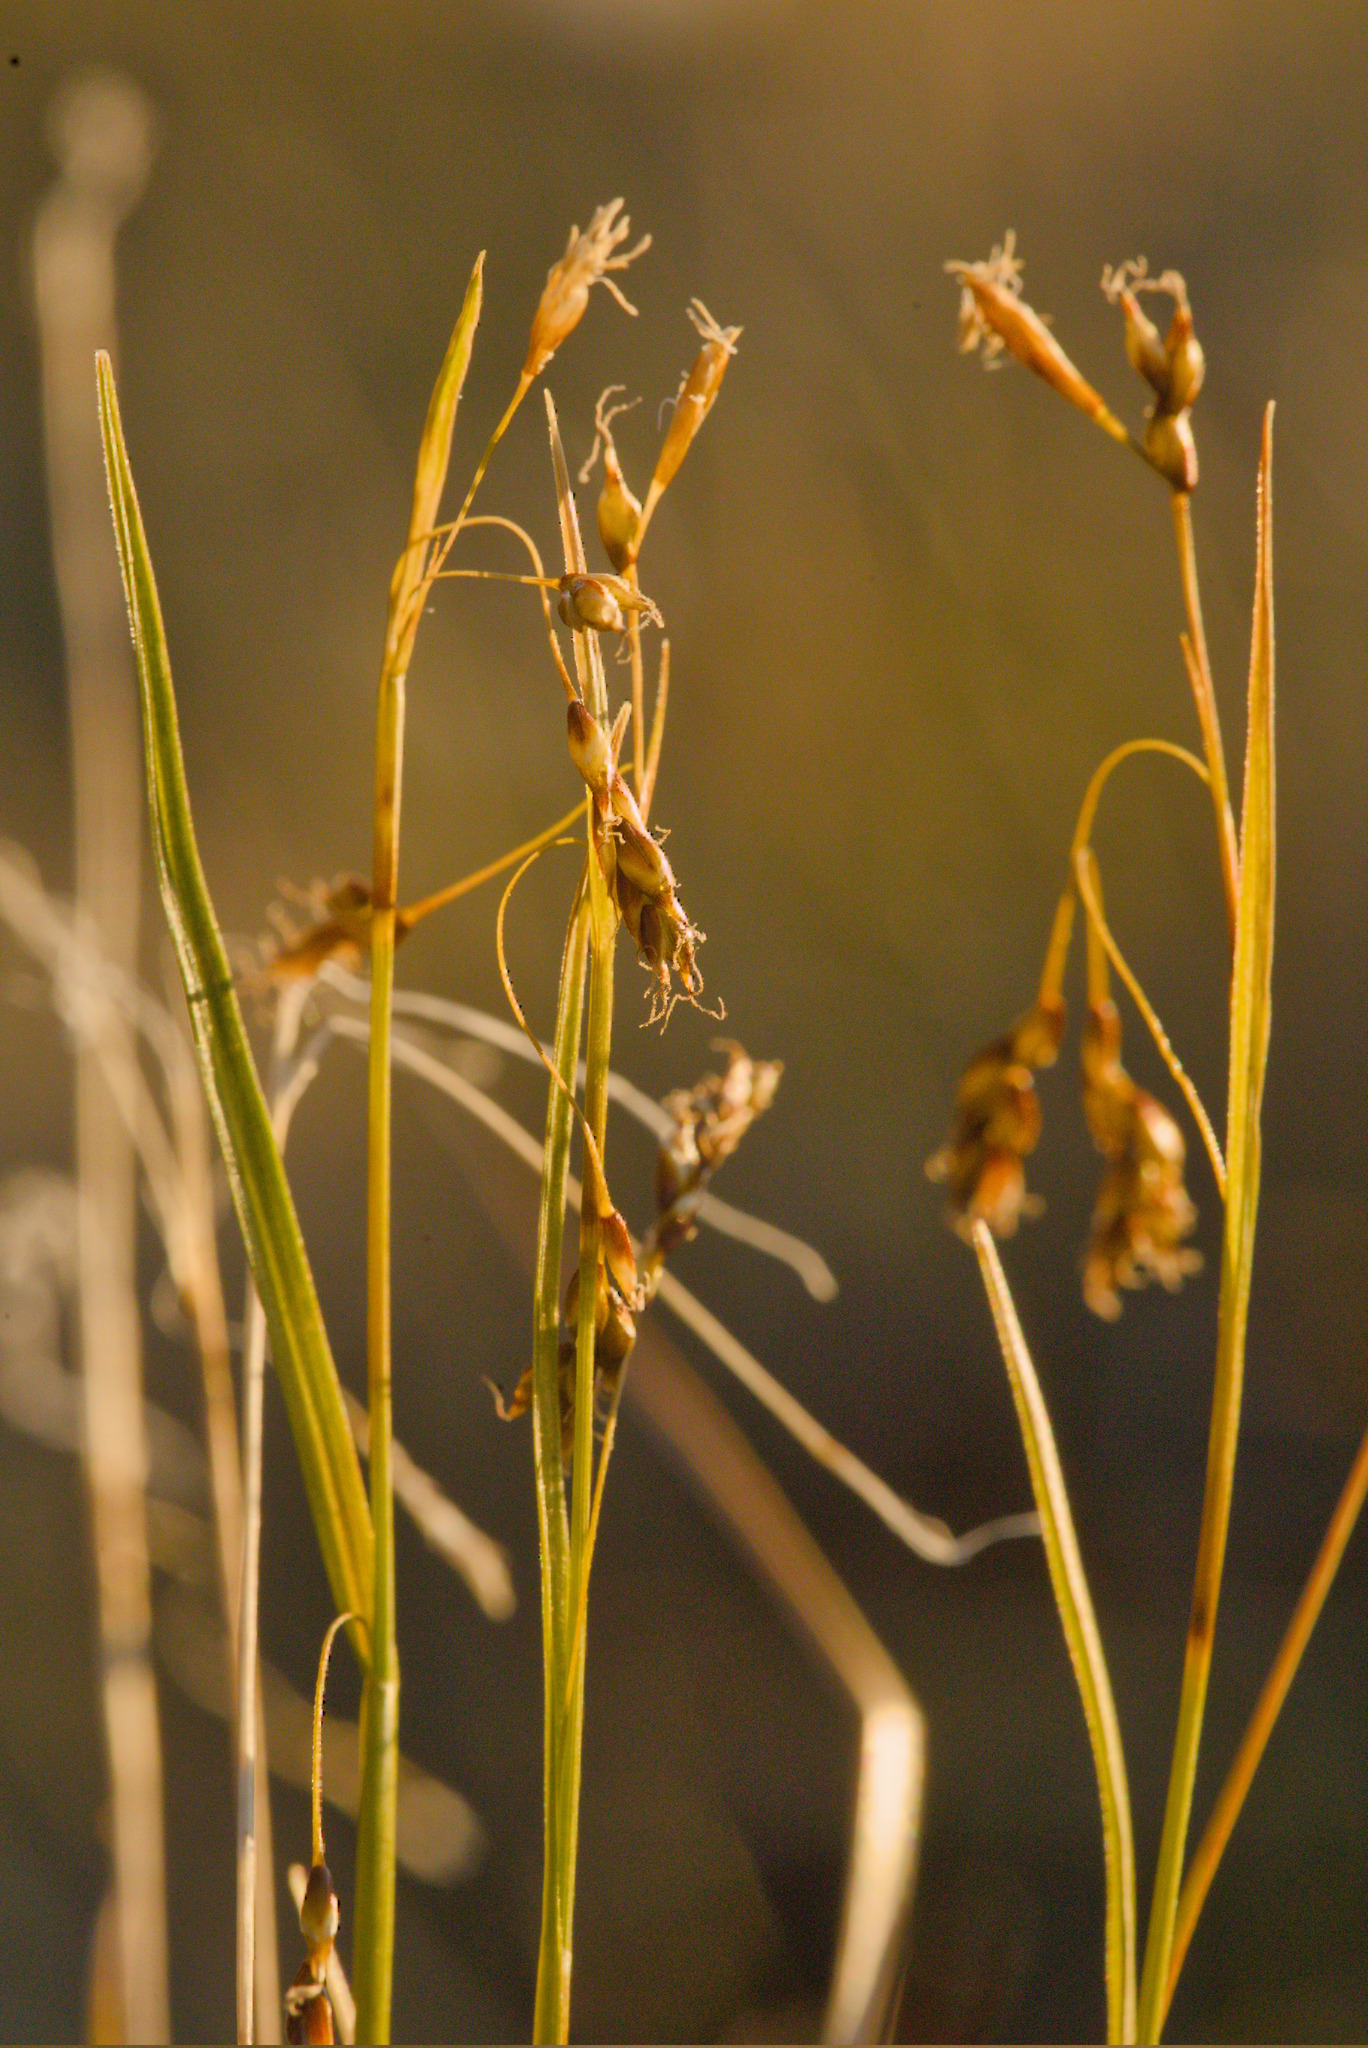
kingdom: Plantae
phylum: Tracheophyta
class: Liliopsida
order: Poales
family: Cyperaceae
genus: Carex
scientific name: Carex capillaris
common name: Hair sedge
